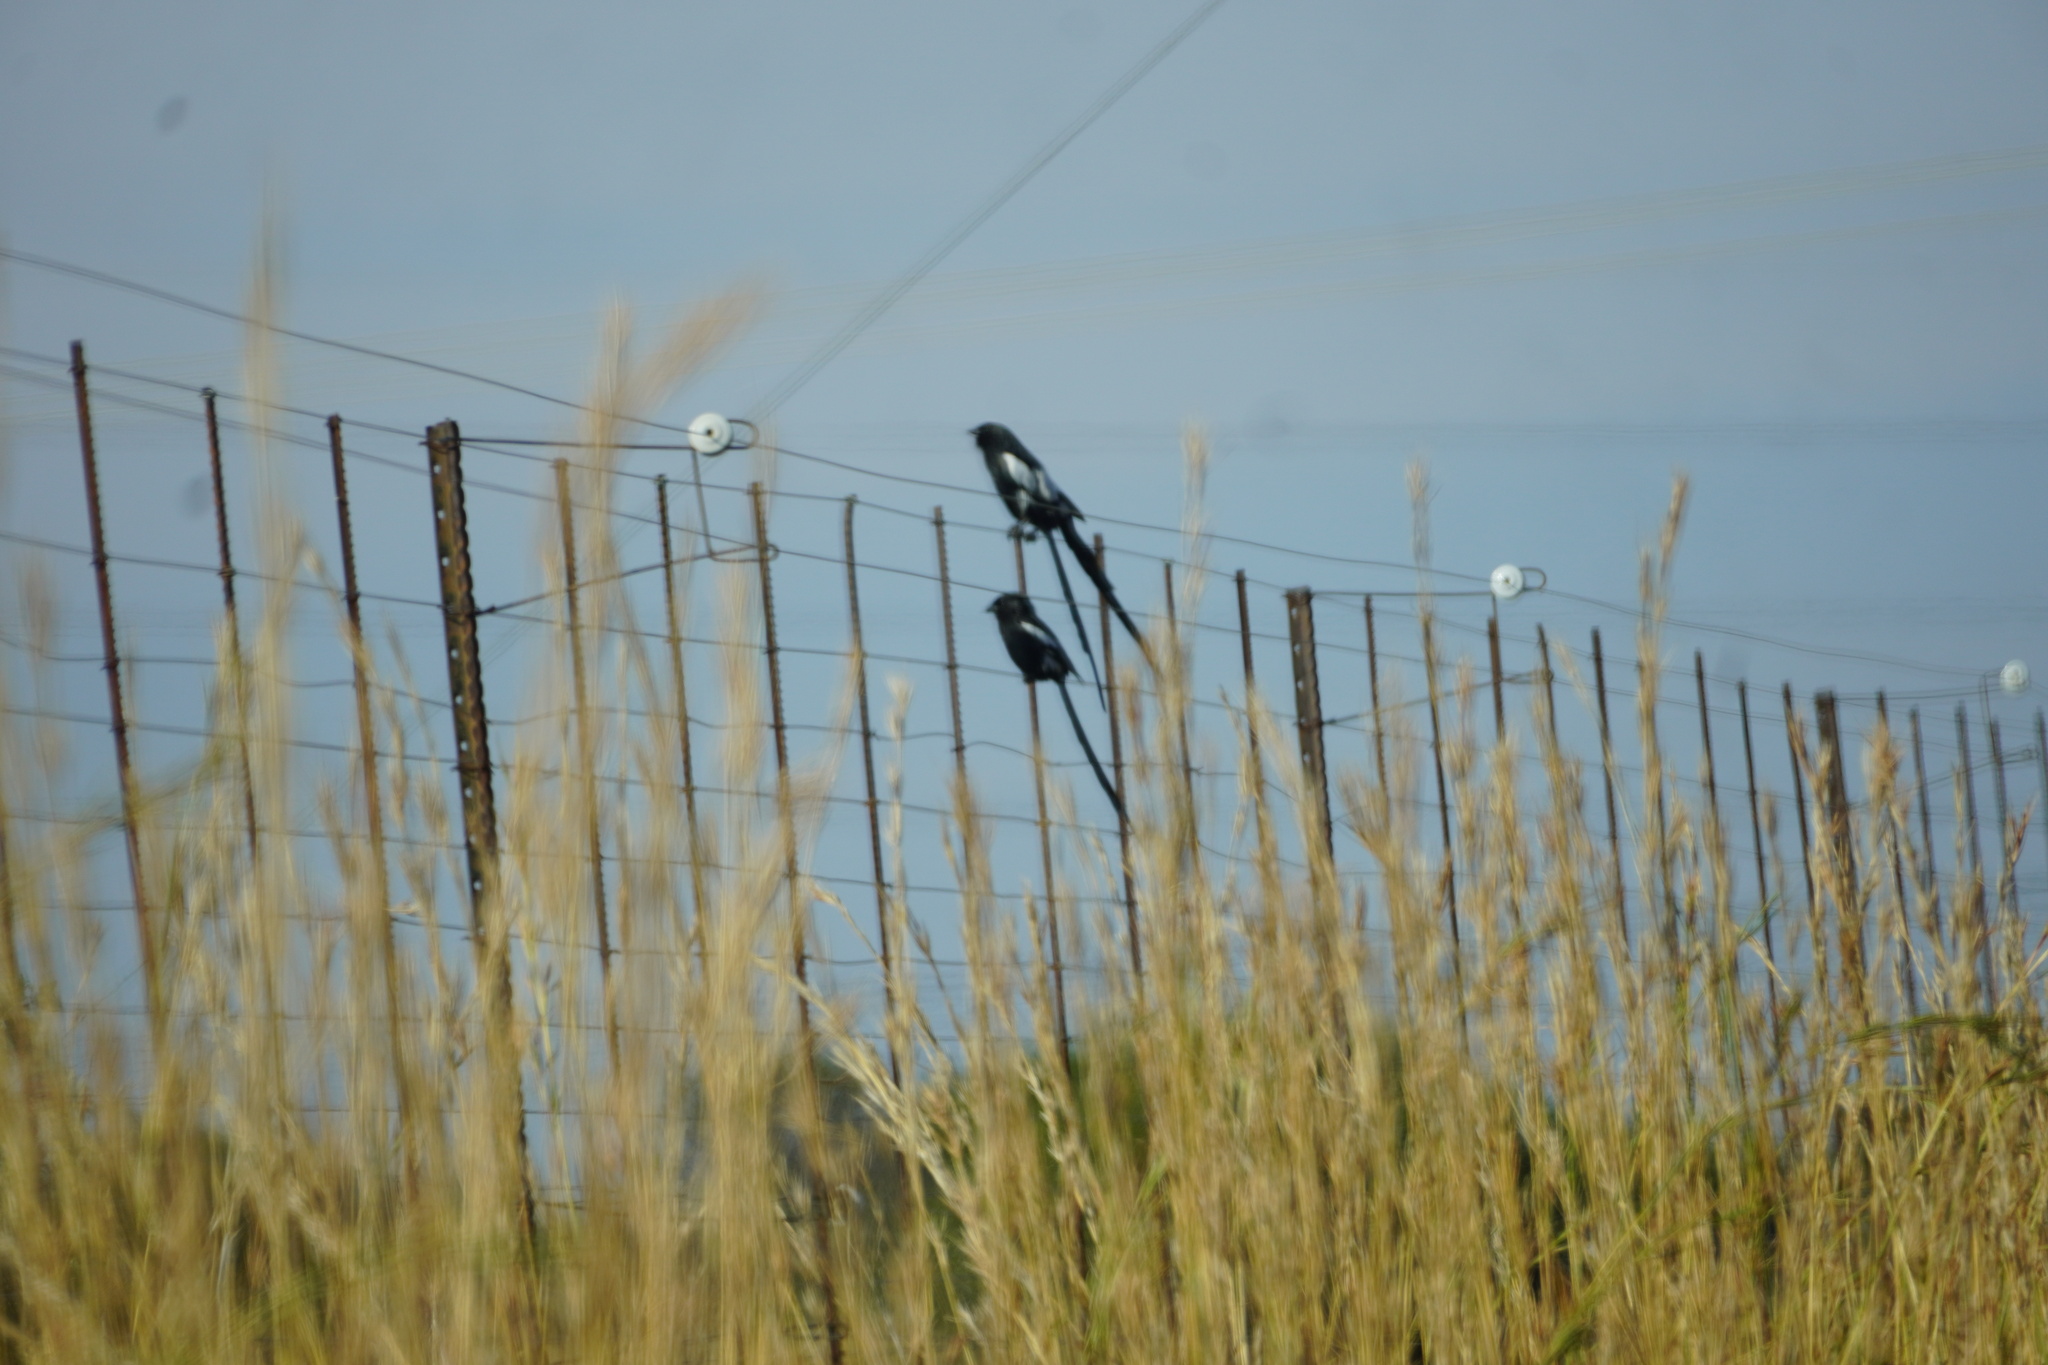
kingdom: Animalia
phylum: Chordata
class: Aves
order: Passeriformes
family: Laniidae
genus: Urolestes
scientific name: Urolestes melanoleucus
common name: Magpie shrike
